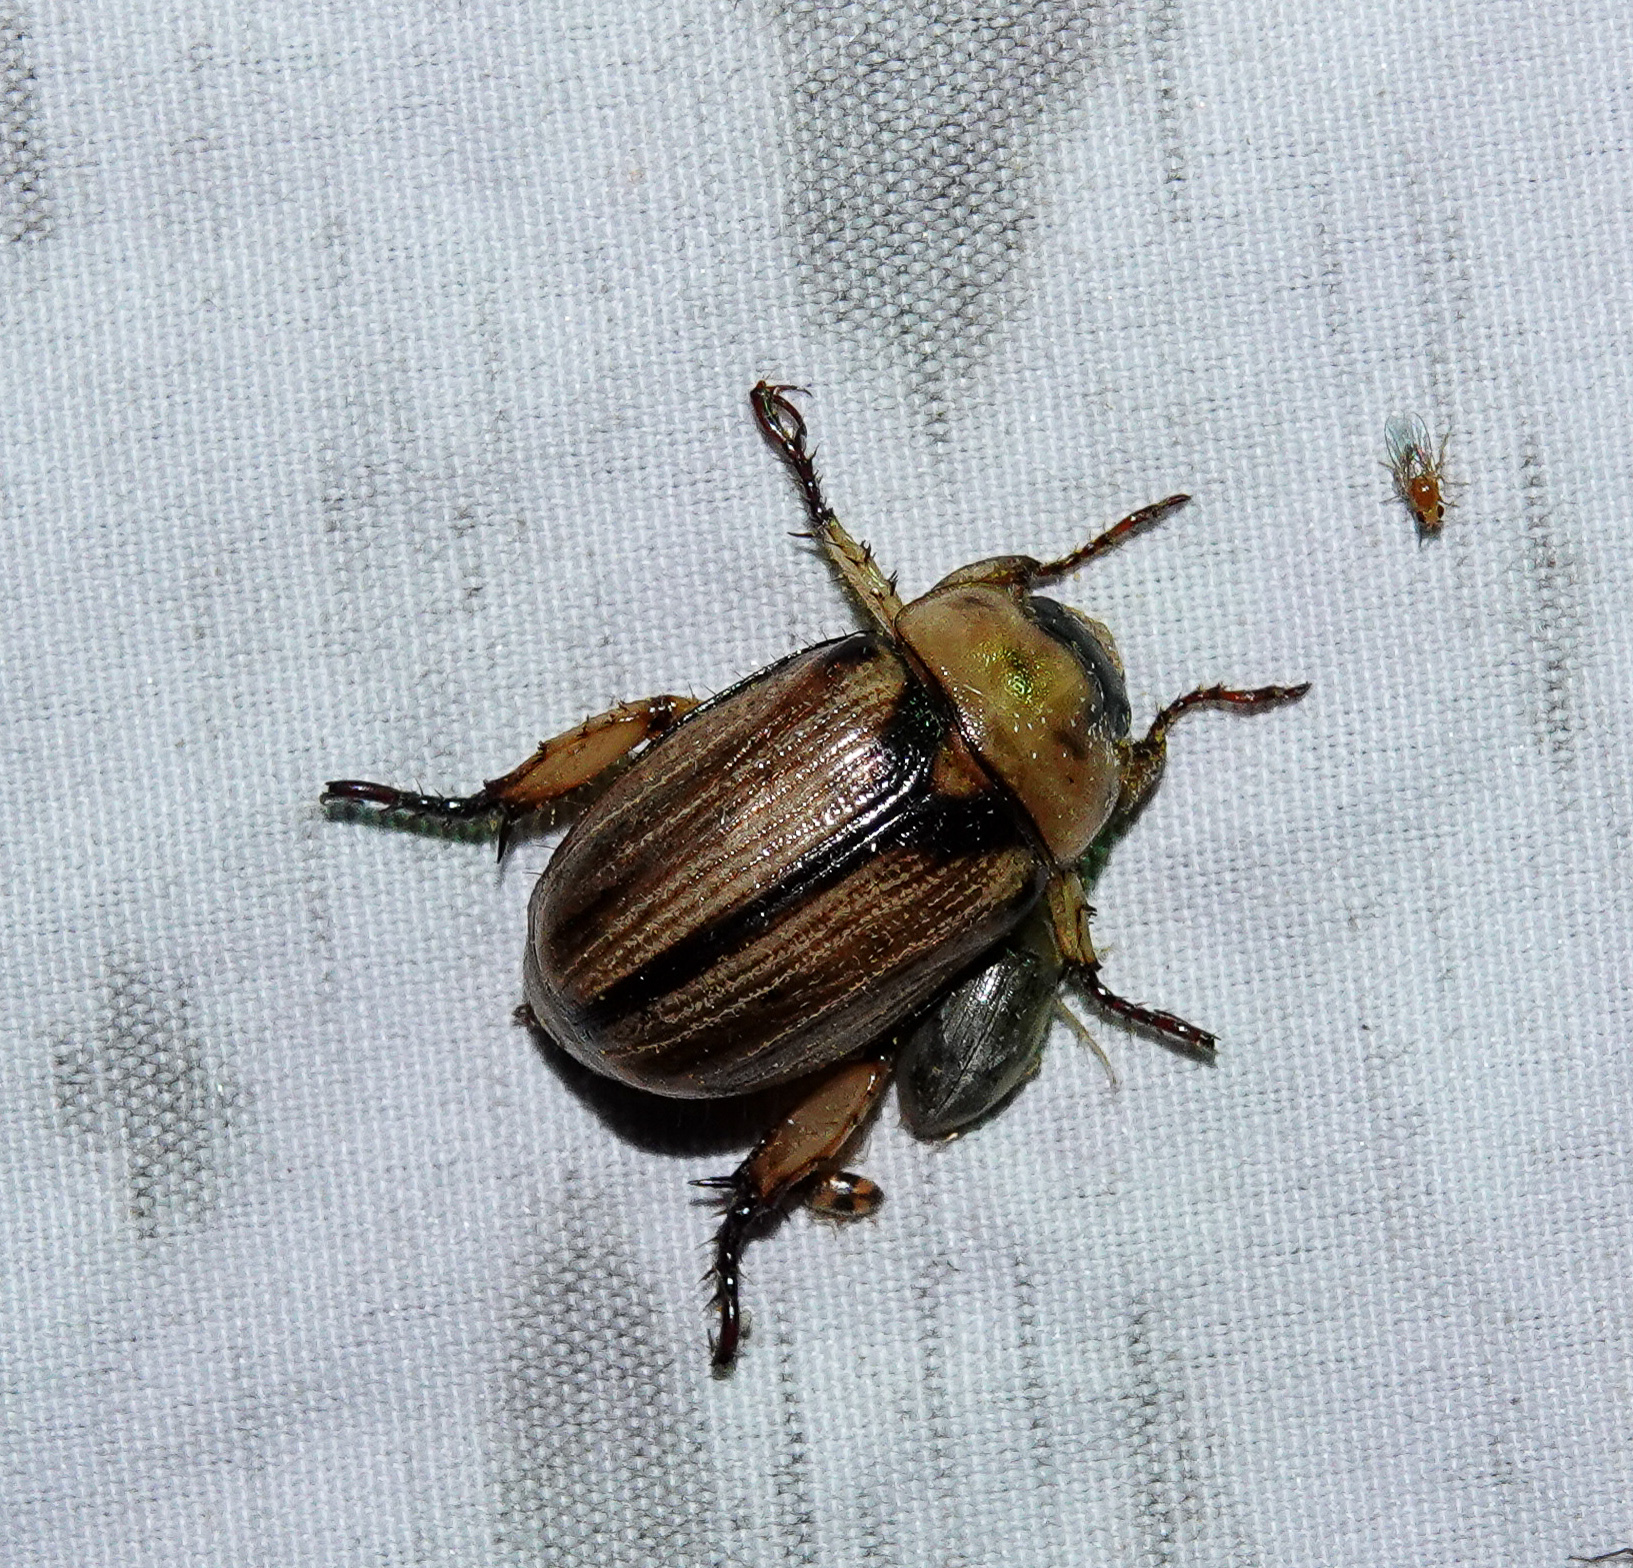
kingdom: Animalia
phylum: Arthropoda
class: Insecta
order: Coleoptera
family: Scarabaeidae
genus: Anomala
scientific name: Anomala variivestis
